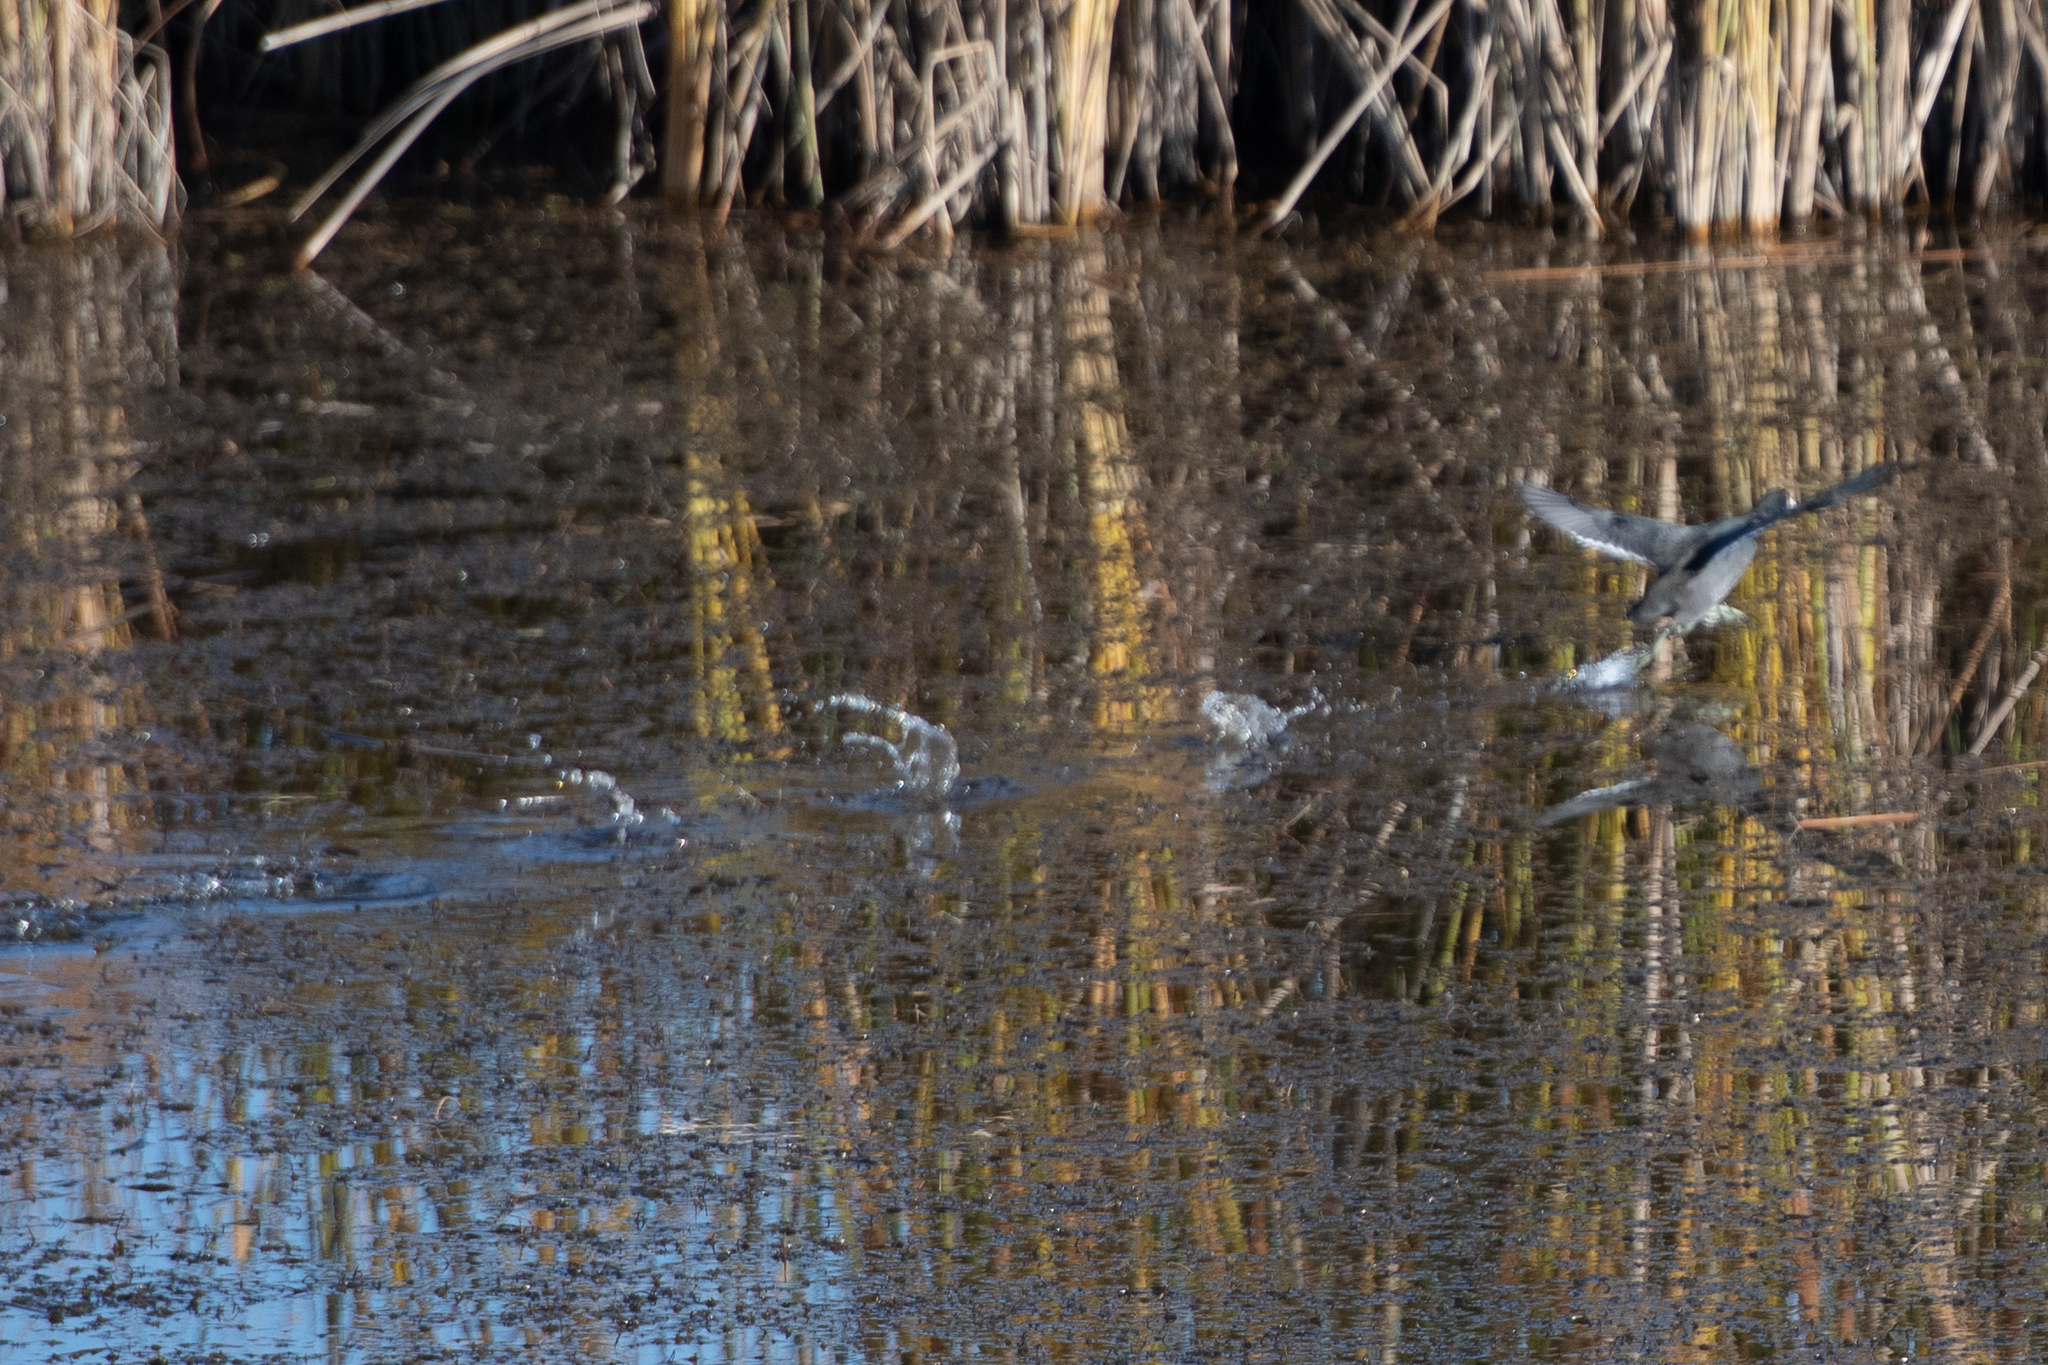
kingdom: Animalia
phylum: Chordata
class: Aves
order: Gruiformes
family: Rallidae
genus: Fulica
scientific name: Fulica americana
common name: American coot
